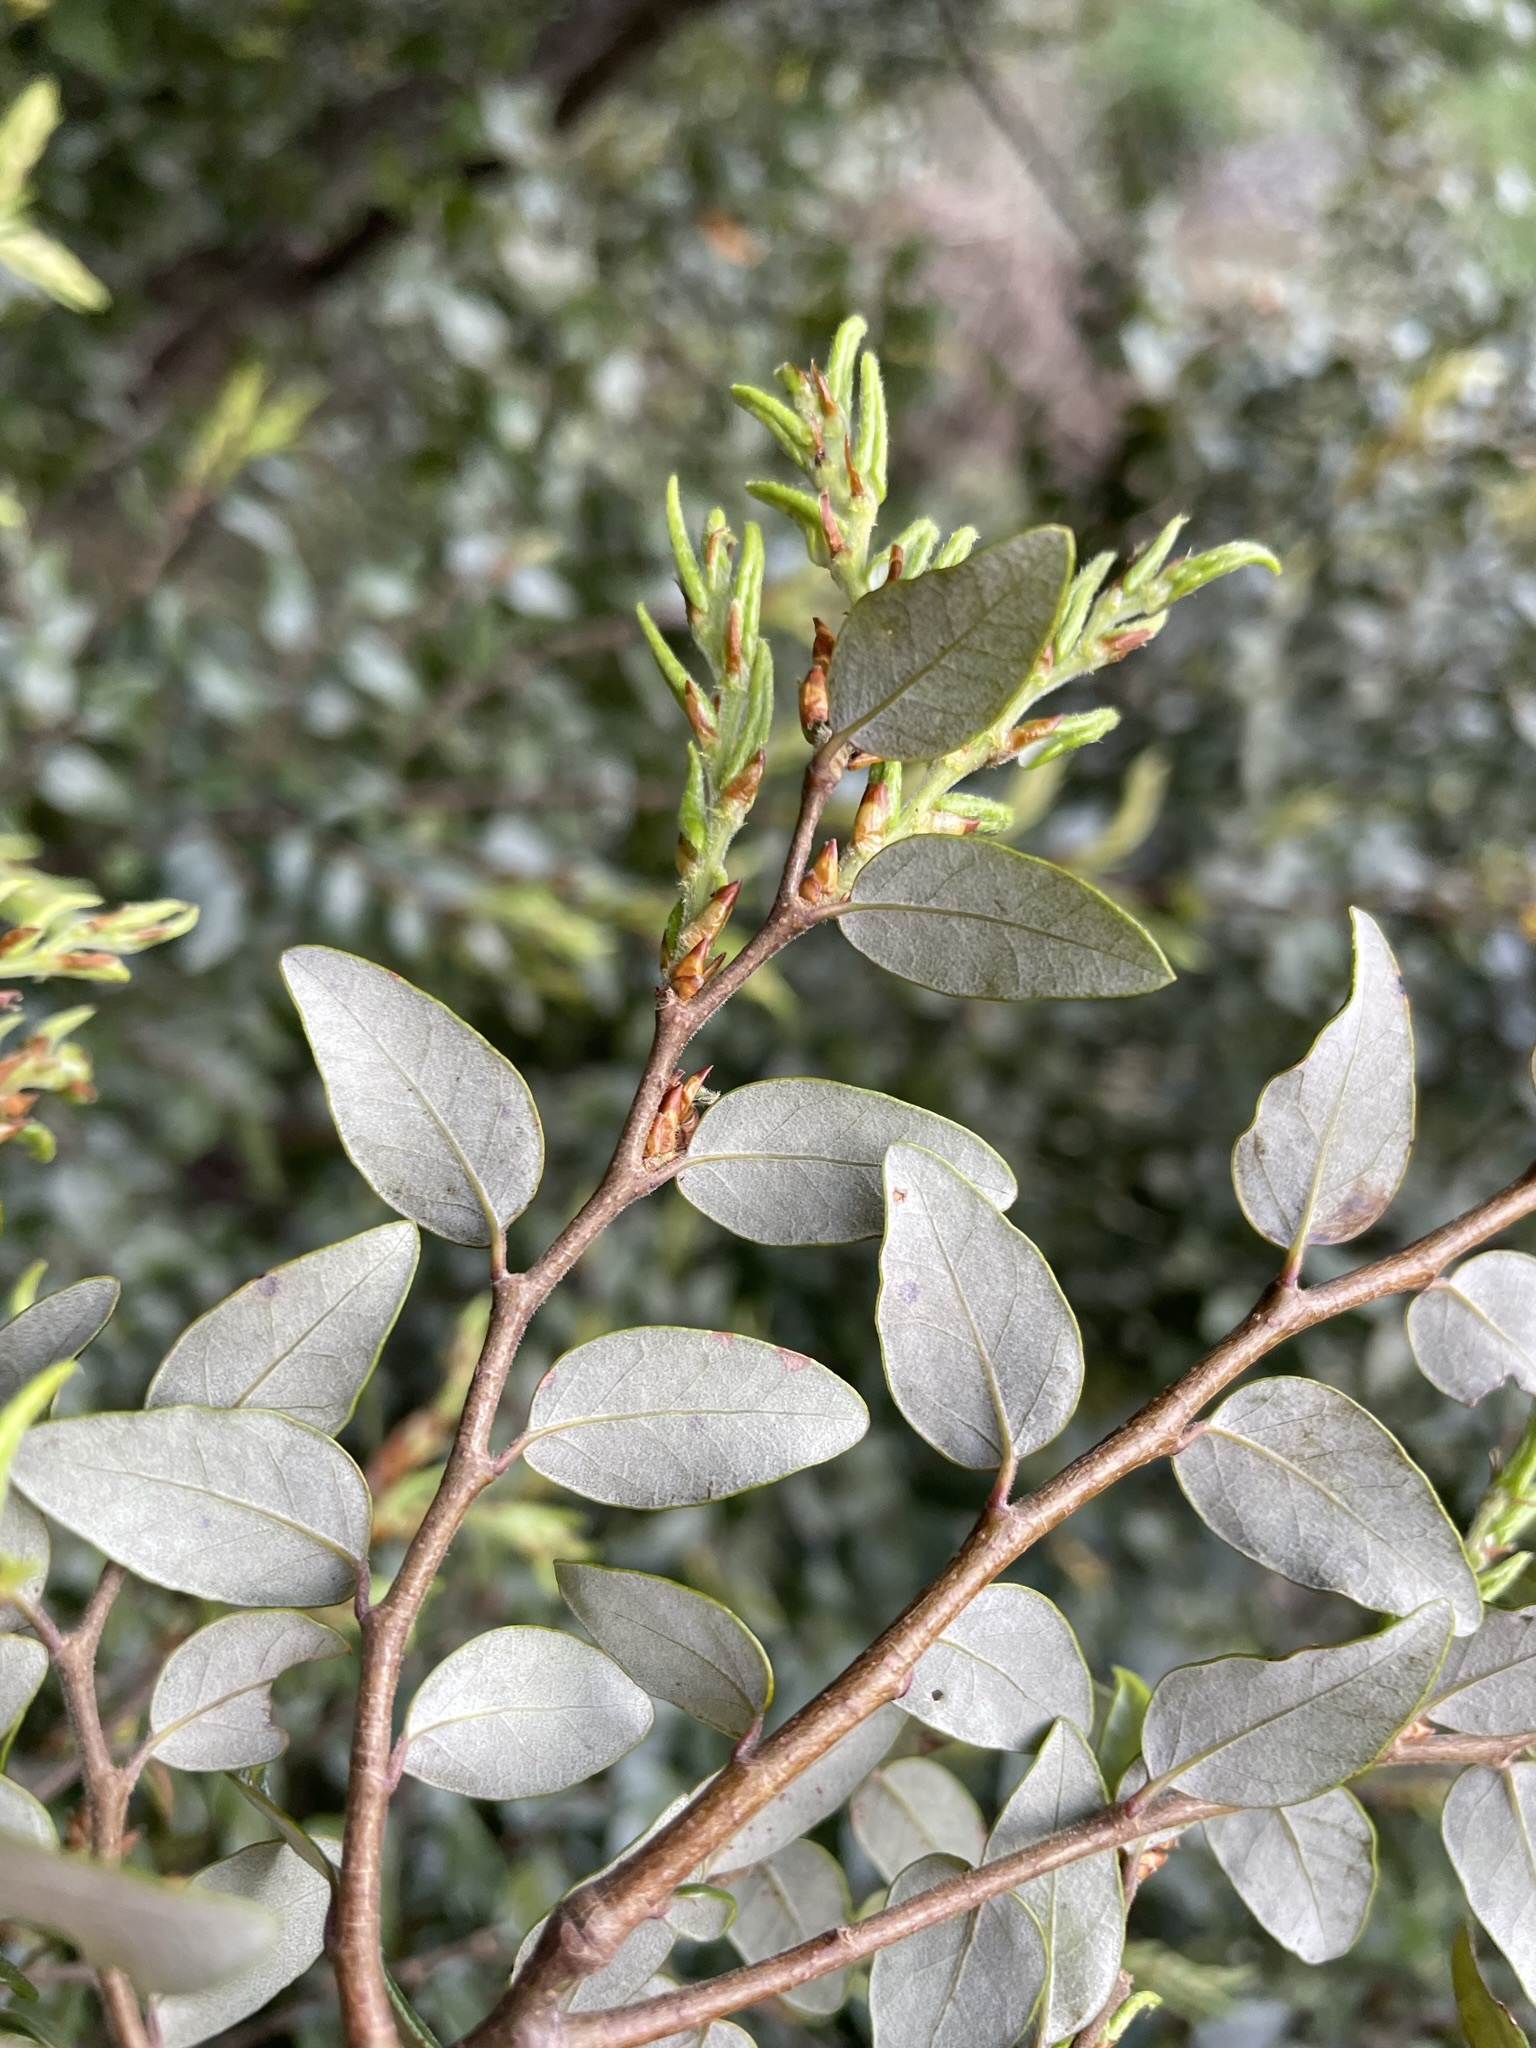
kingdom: Plantae
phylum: Tracheophyta
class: Magnoliopsida
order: Fagales
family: Nothofagaceae
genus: Nothofagus
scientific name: Nothofagus cliffortioides
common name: Mountain beech
